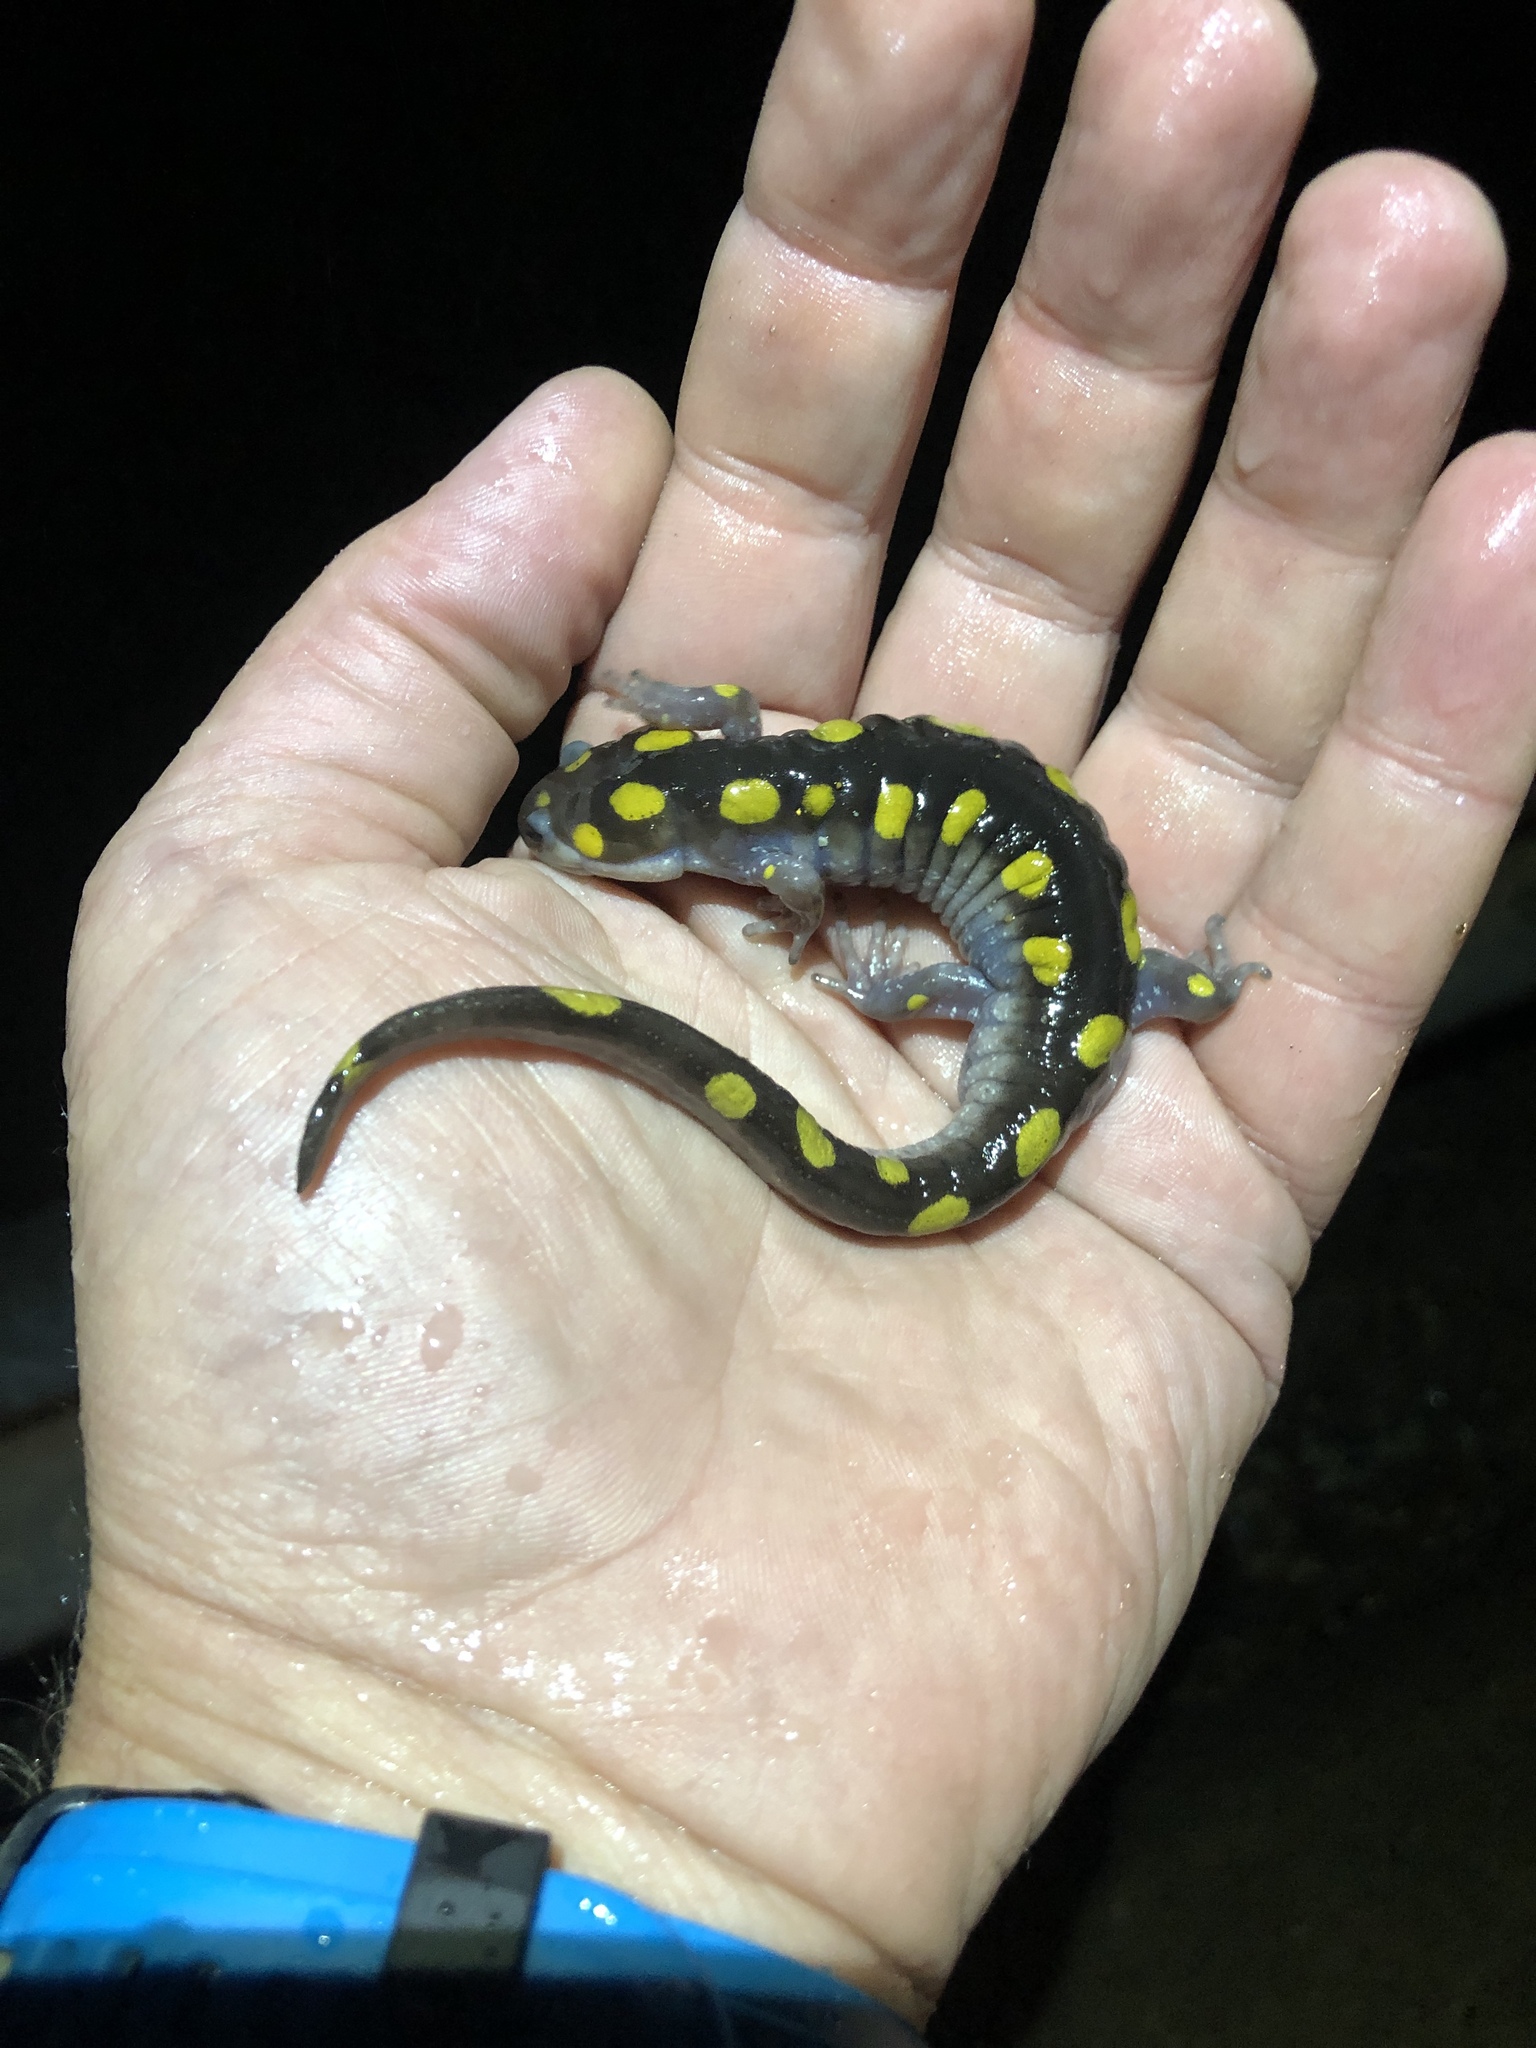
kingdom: Animalia
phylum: Chordata
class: Amphibia
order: Caudata
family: Ambystomatidae
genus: Ambystoma
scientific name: Ambystoma maculatum
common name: Spotted salamander
